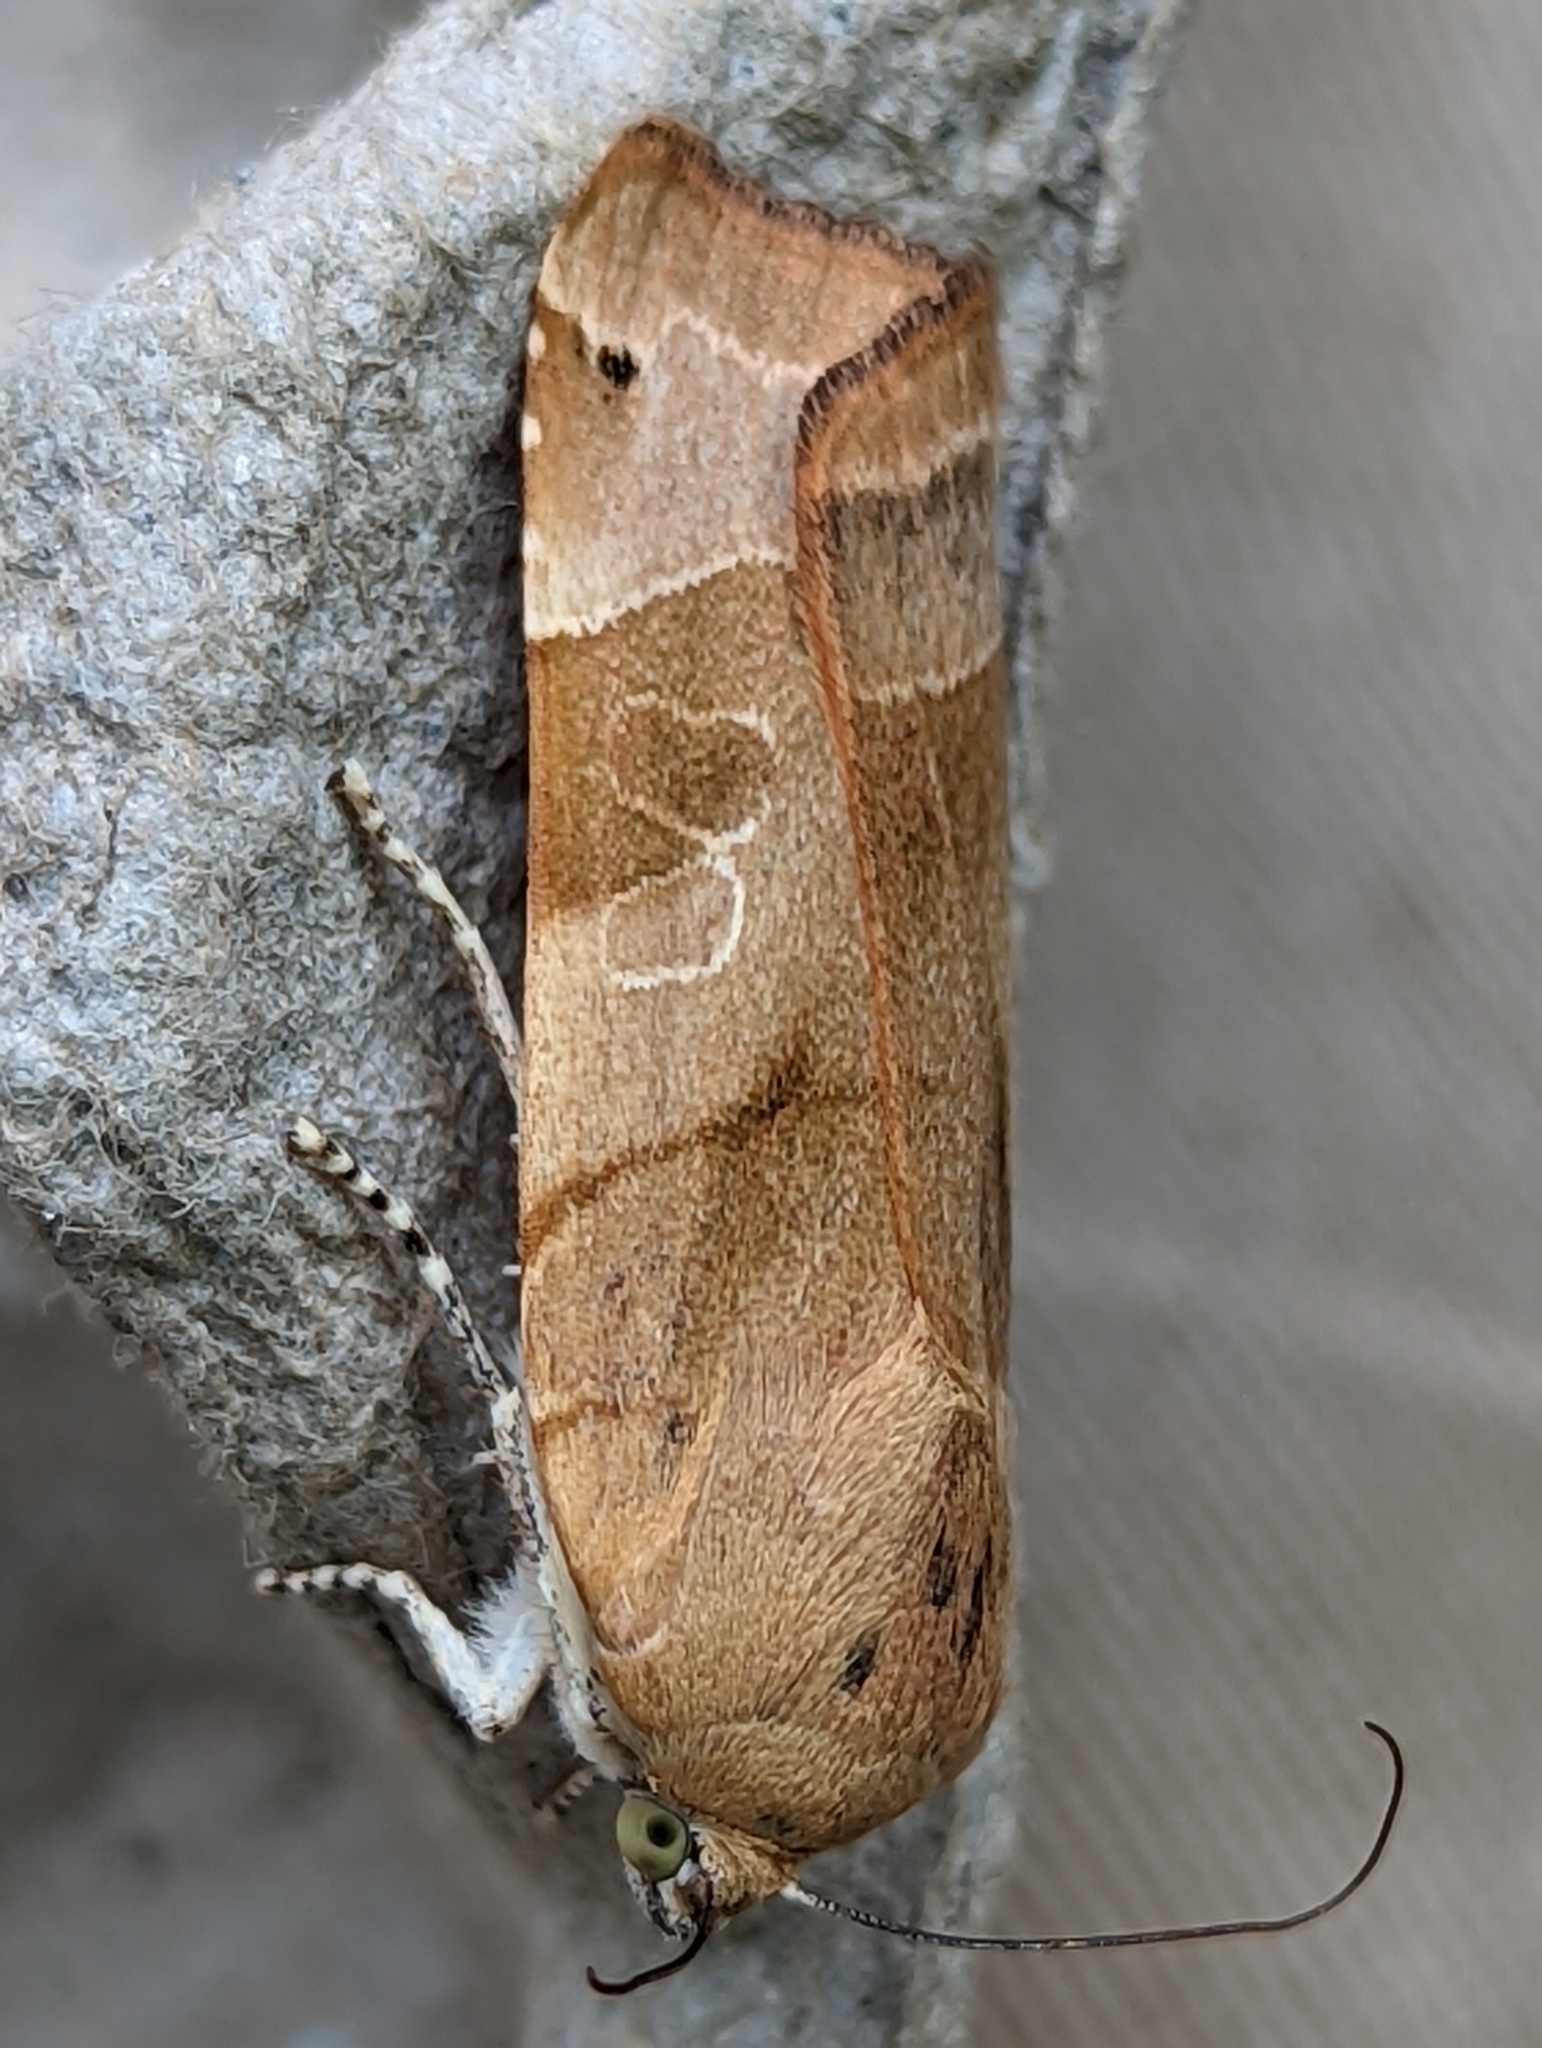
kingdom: Animalia
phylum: Arthropoda
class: Insecta
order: Lepidoptera
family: Noctuidae
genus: Noctua
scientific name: Noctua fimbriata
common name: Broad-bordered yellow underwing
